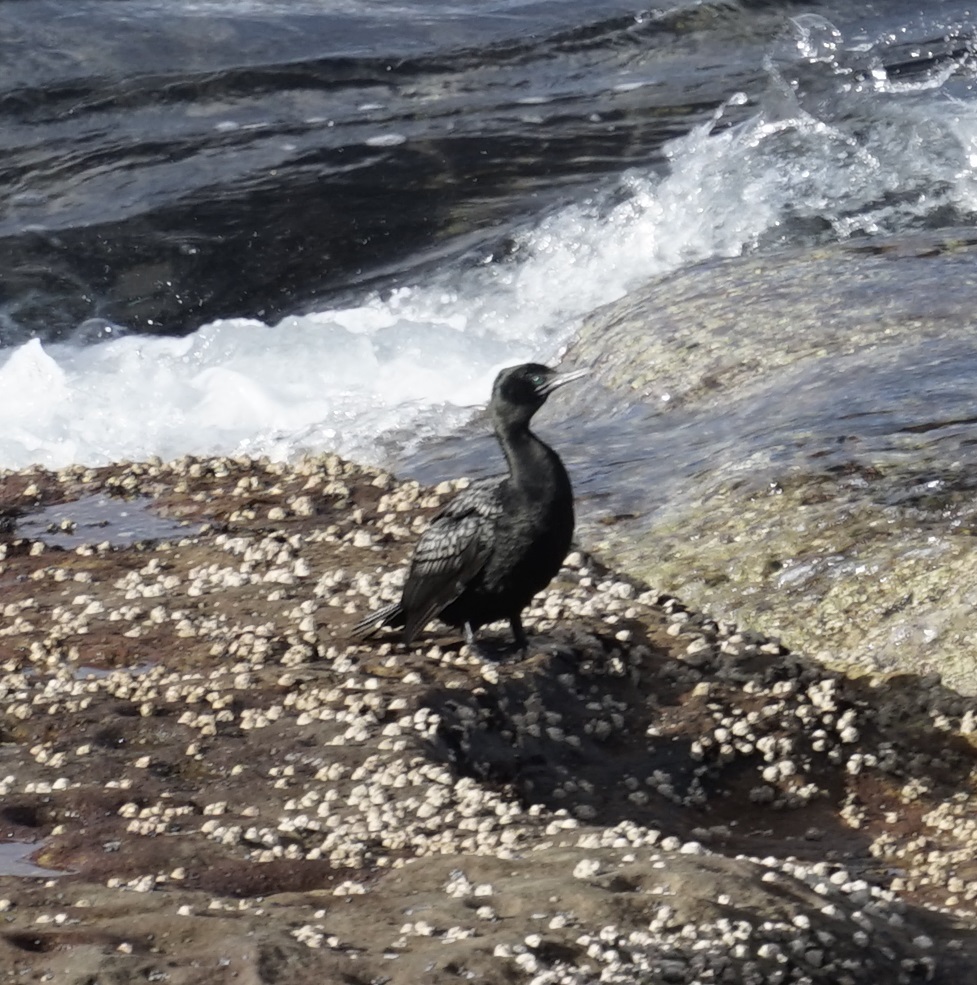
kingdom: Animalia
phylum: Chordata
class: Aves
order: Suliformes
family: Phalacrocoracidae
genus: Phalacrocorax
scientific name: Phalacrocorax sulcirostris
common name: Little black cormorant
